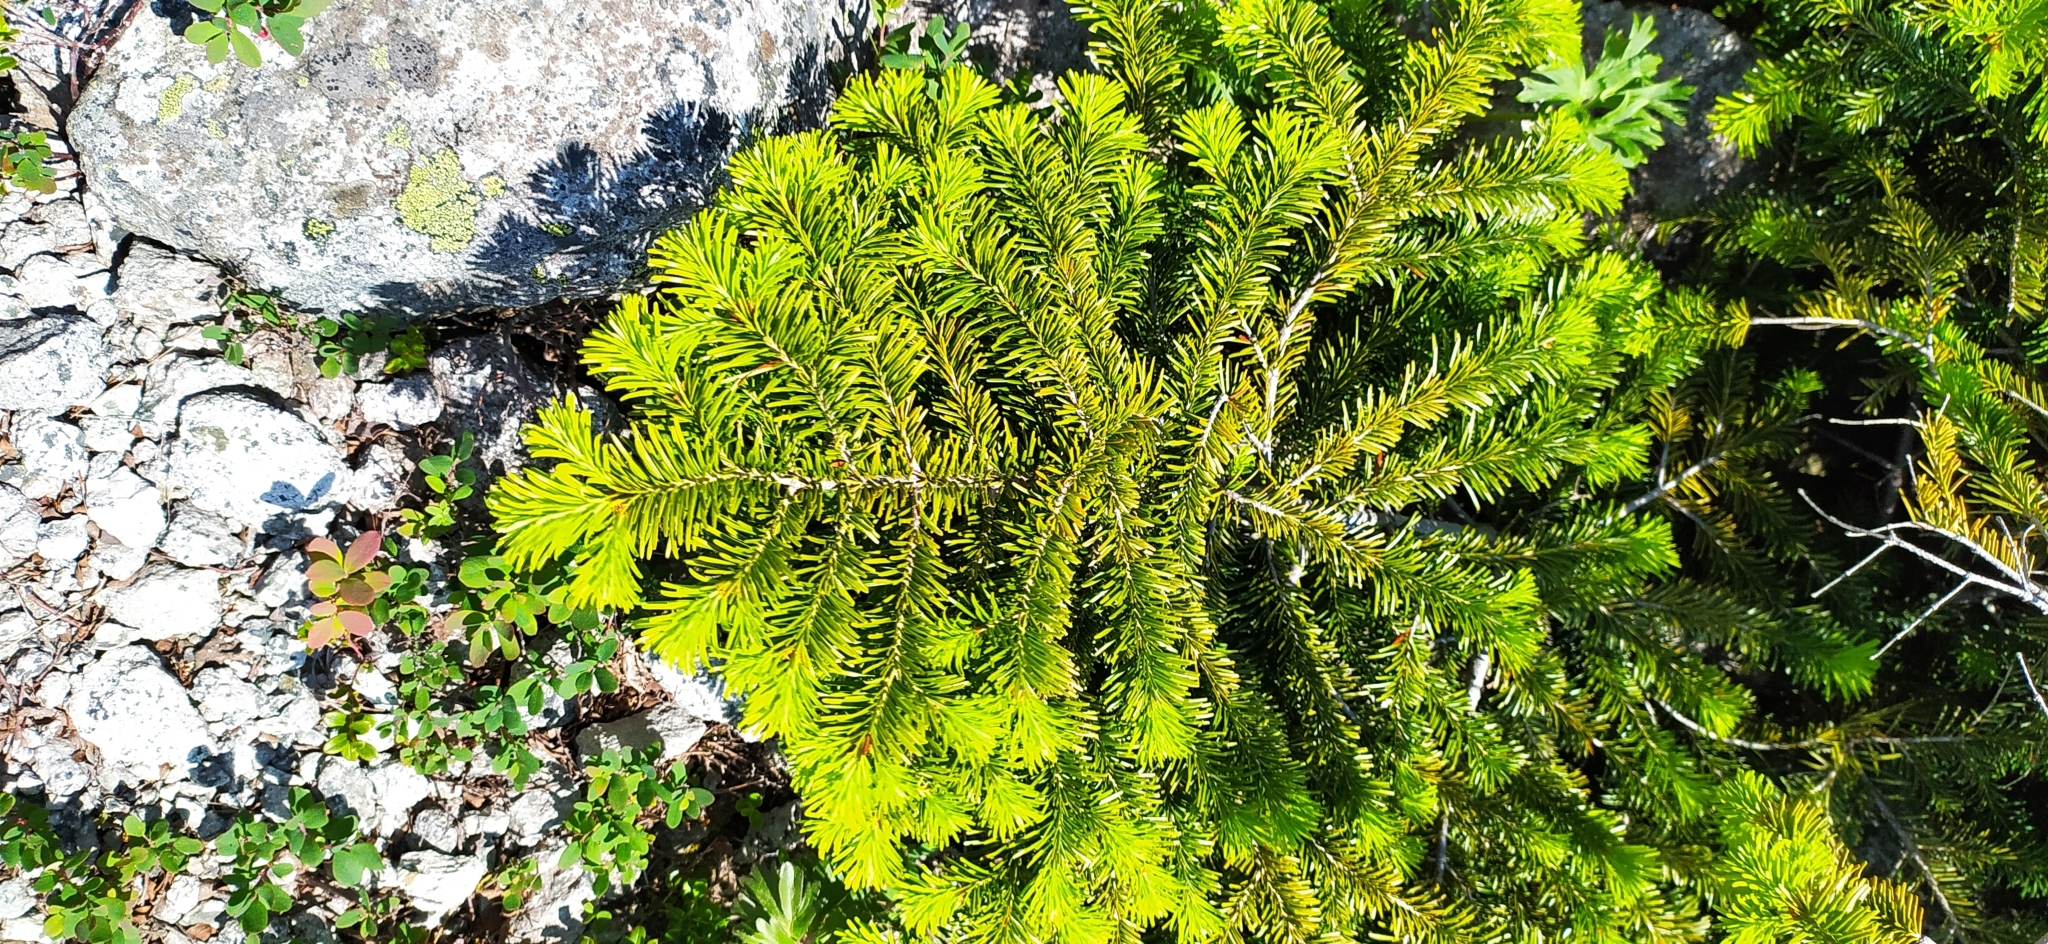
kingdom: Plantae
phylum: Tracheophyta
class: Pinopsida
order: Pinales
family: Pinaceae
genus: Abies
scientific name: Abies sibirica
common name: Siberian fir
